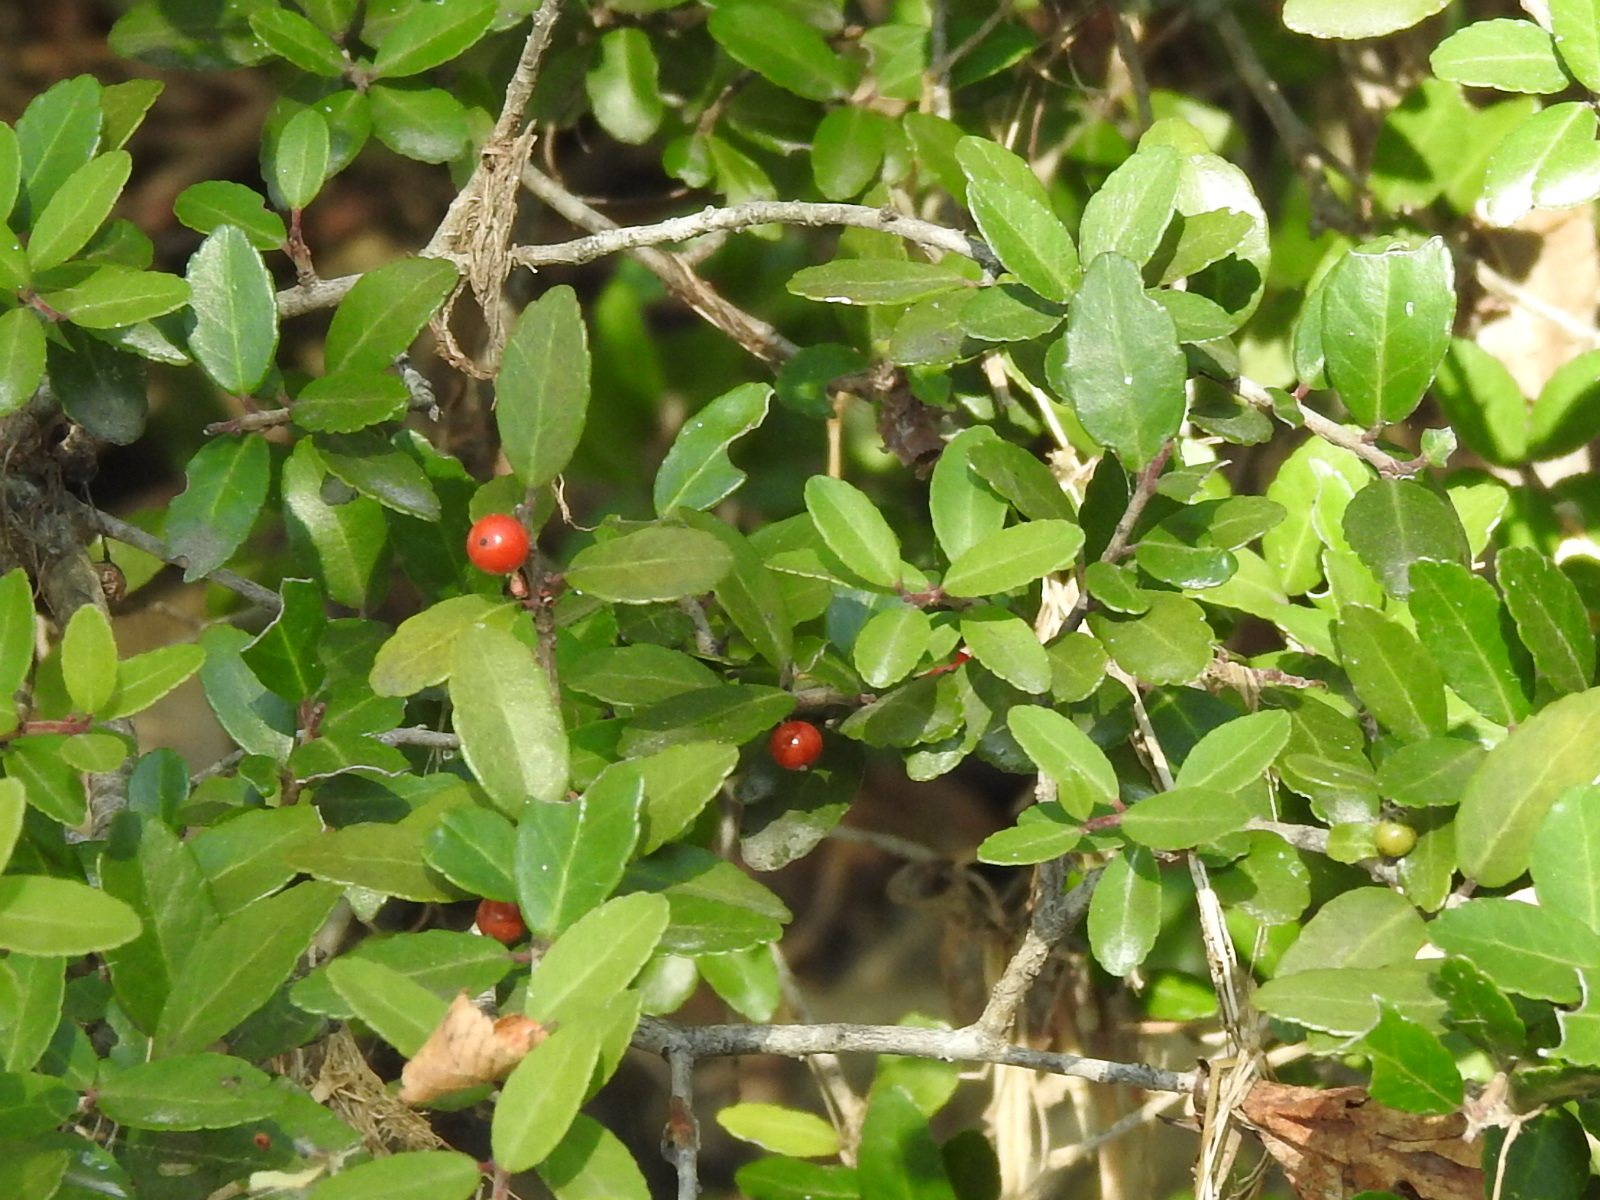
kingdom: Plantae
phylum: Tracheophyta
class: Magnoliopsida
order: Aquifoliales
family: Aquifoliaceae
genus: Ilex
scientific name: Ilex vomitoria
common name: Yaupon holly
